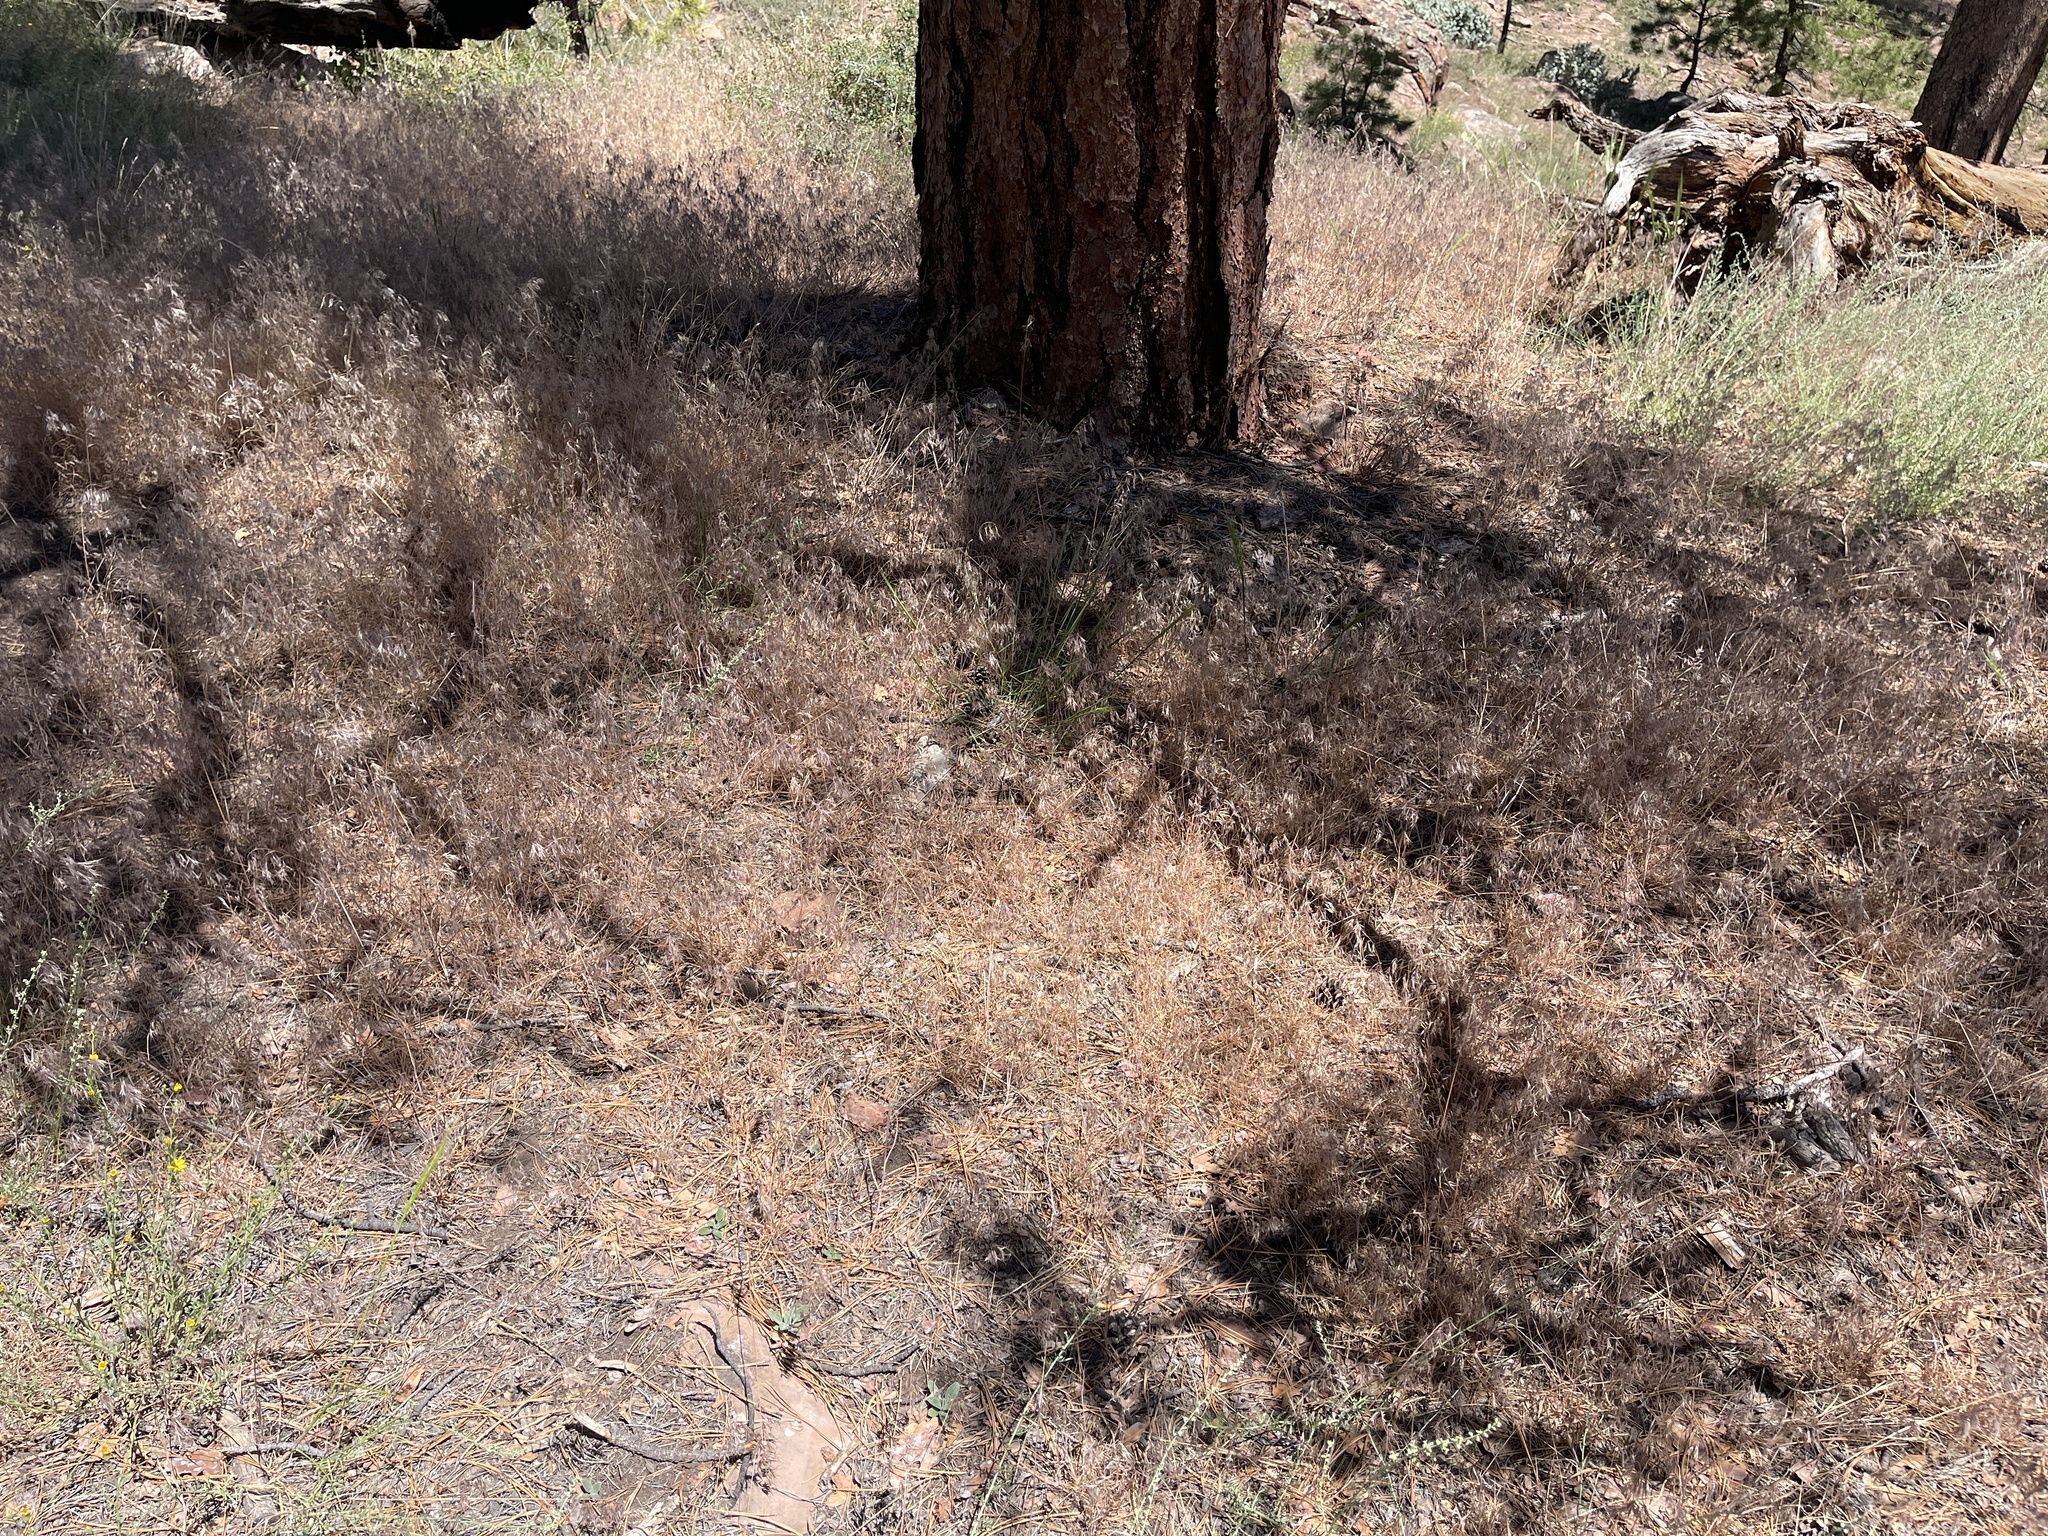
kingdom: Plantae
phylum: Tracheophyta
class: Liliopsida
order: Poales
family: Poaceae
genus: Bromus
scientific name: Bromus tectorum
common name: Cheatgrass
